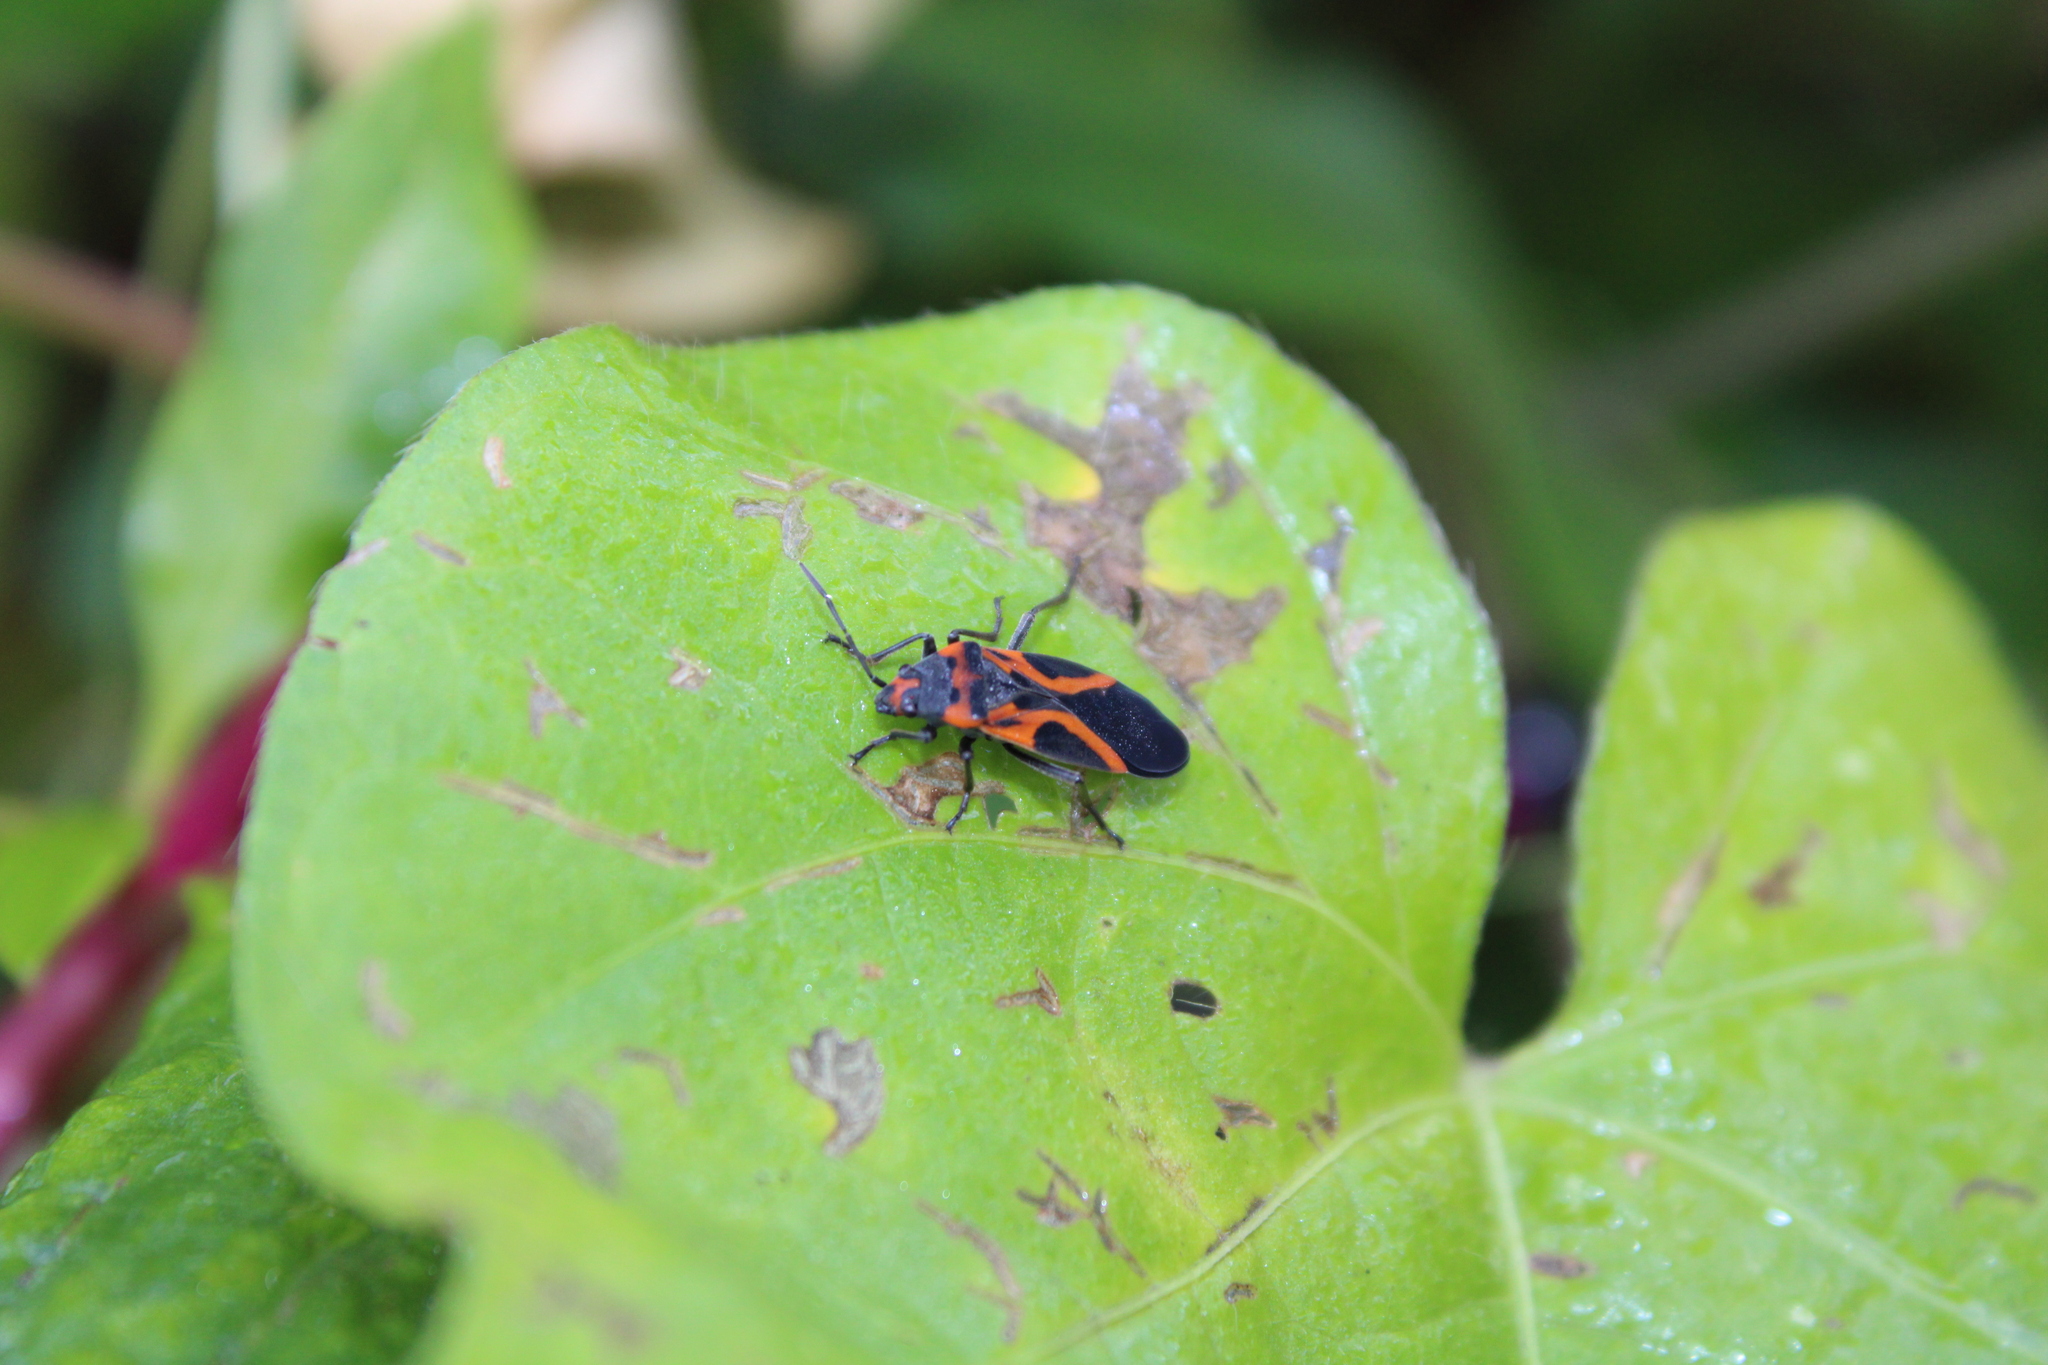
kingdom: Animalia
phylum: Arthropoda
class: Insecta
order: Hemiptera
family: Lygaeidae
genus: Lygaeus
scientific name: Lygaeus turcicus
